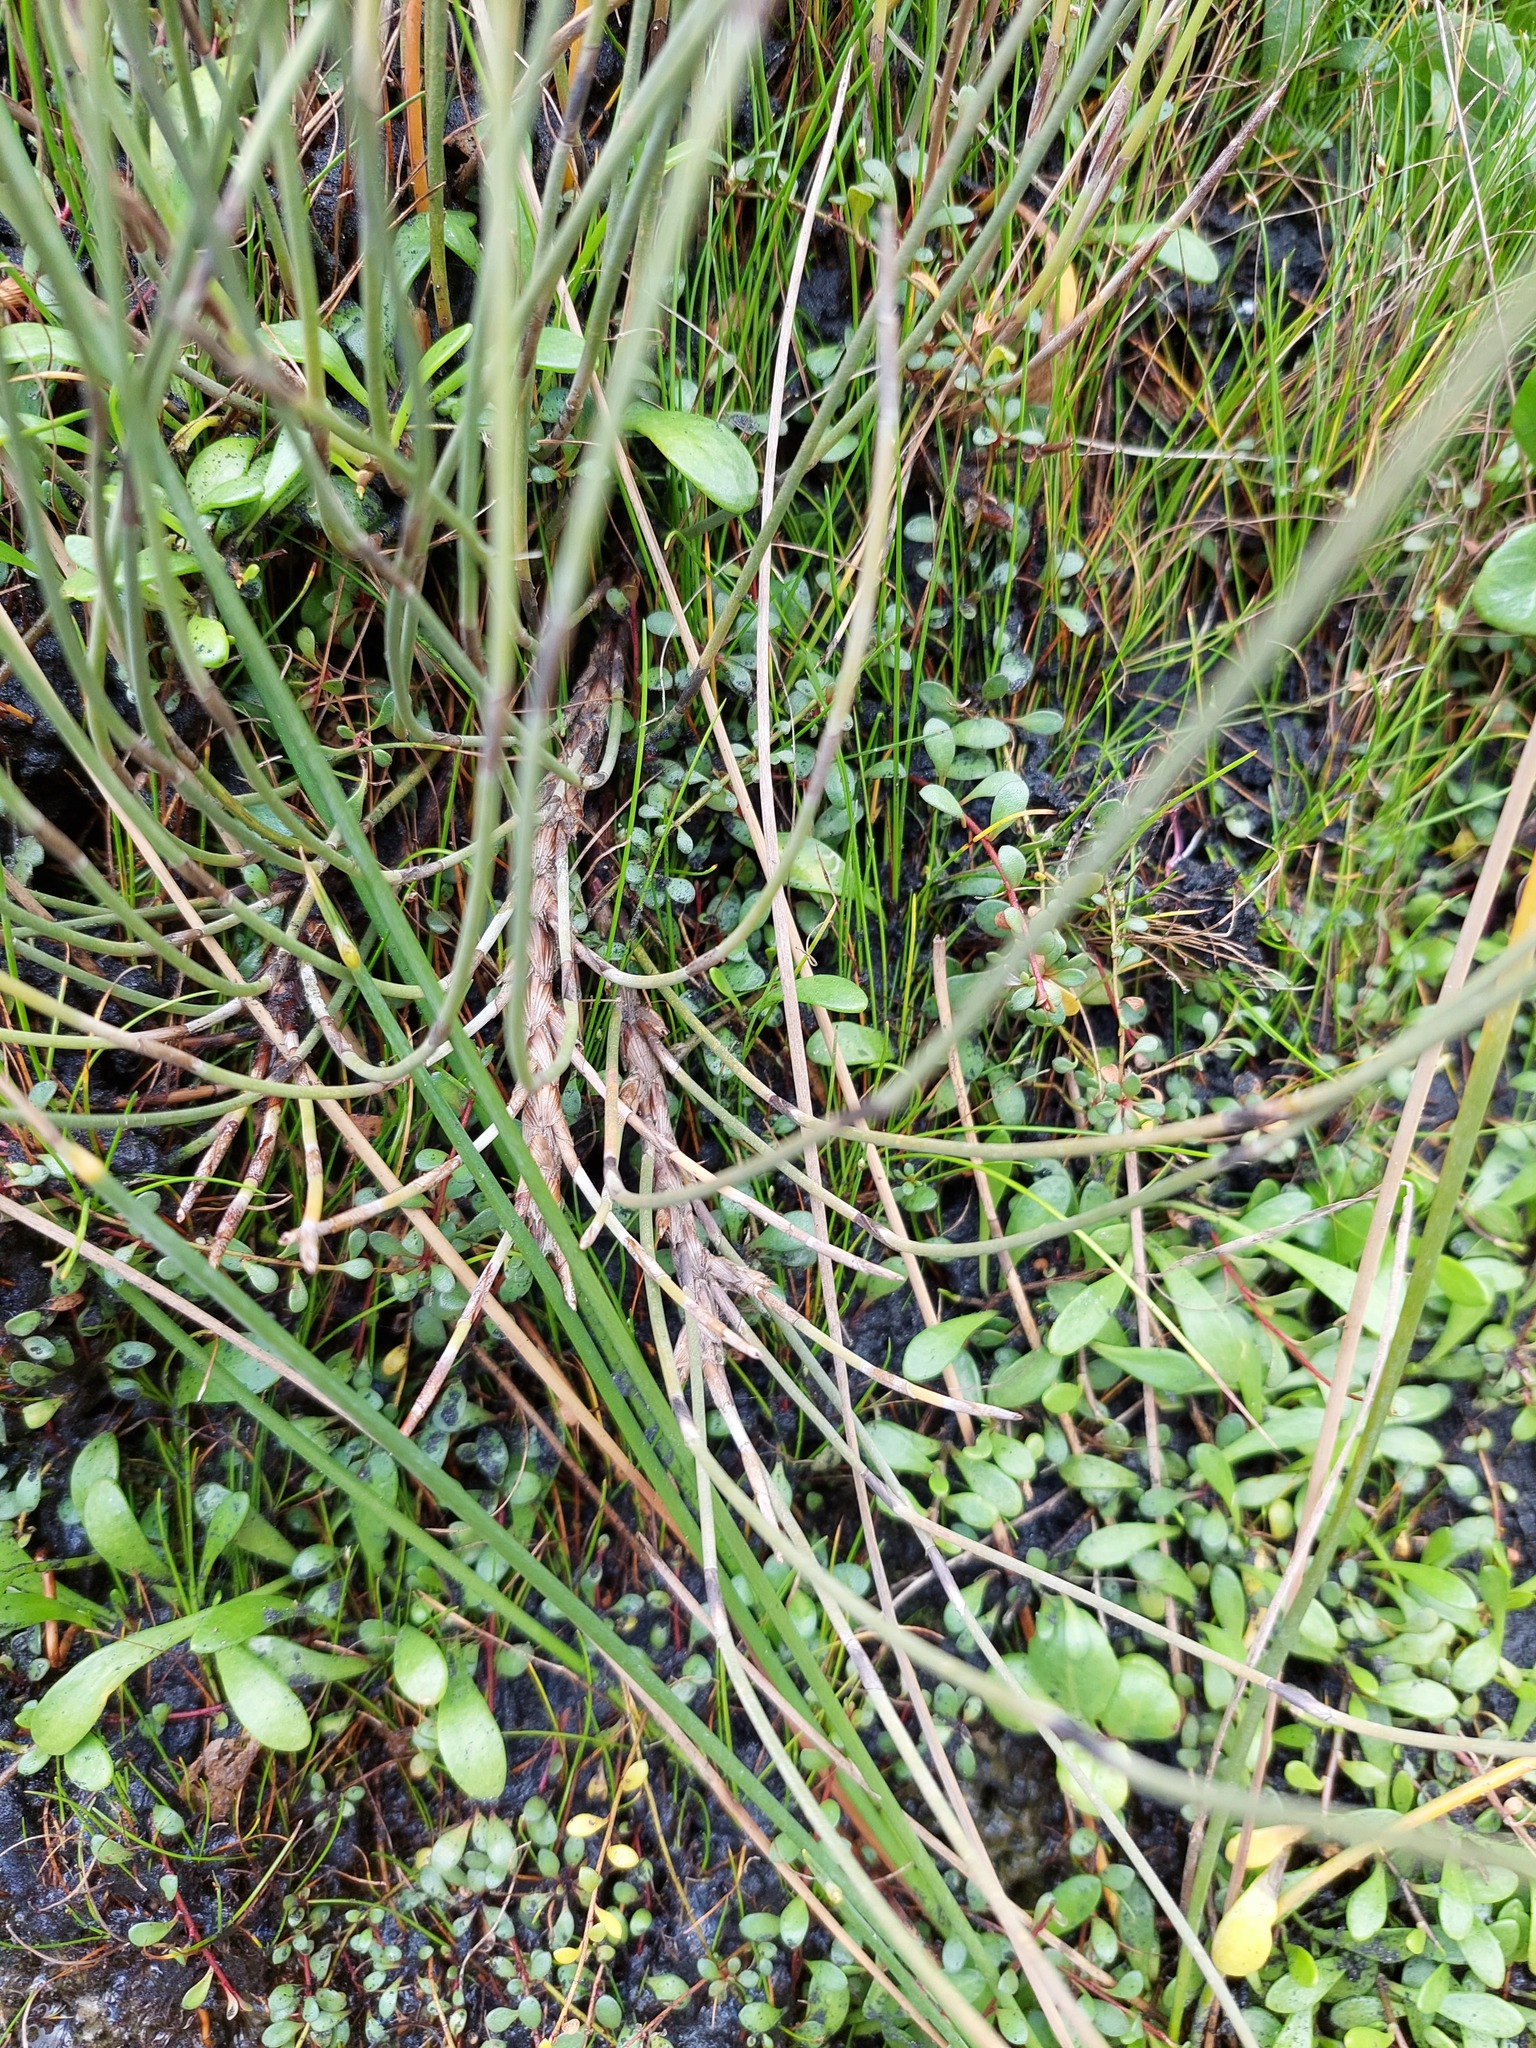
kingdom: Plantae
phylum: Tracheophyta
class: Liliopsida
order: Poales
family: Restionaceae
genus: Apodasmia
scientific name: Apodasmia similis
